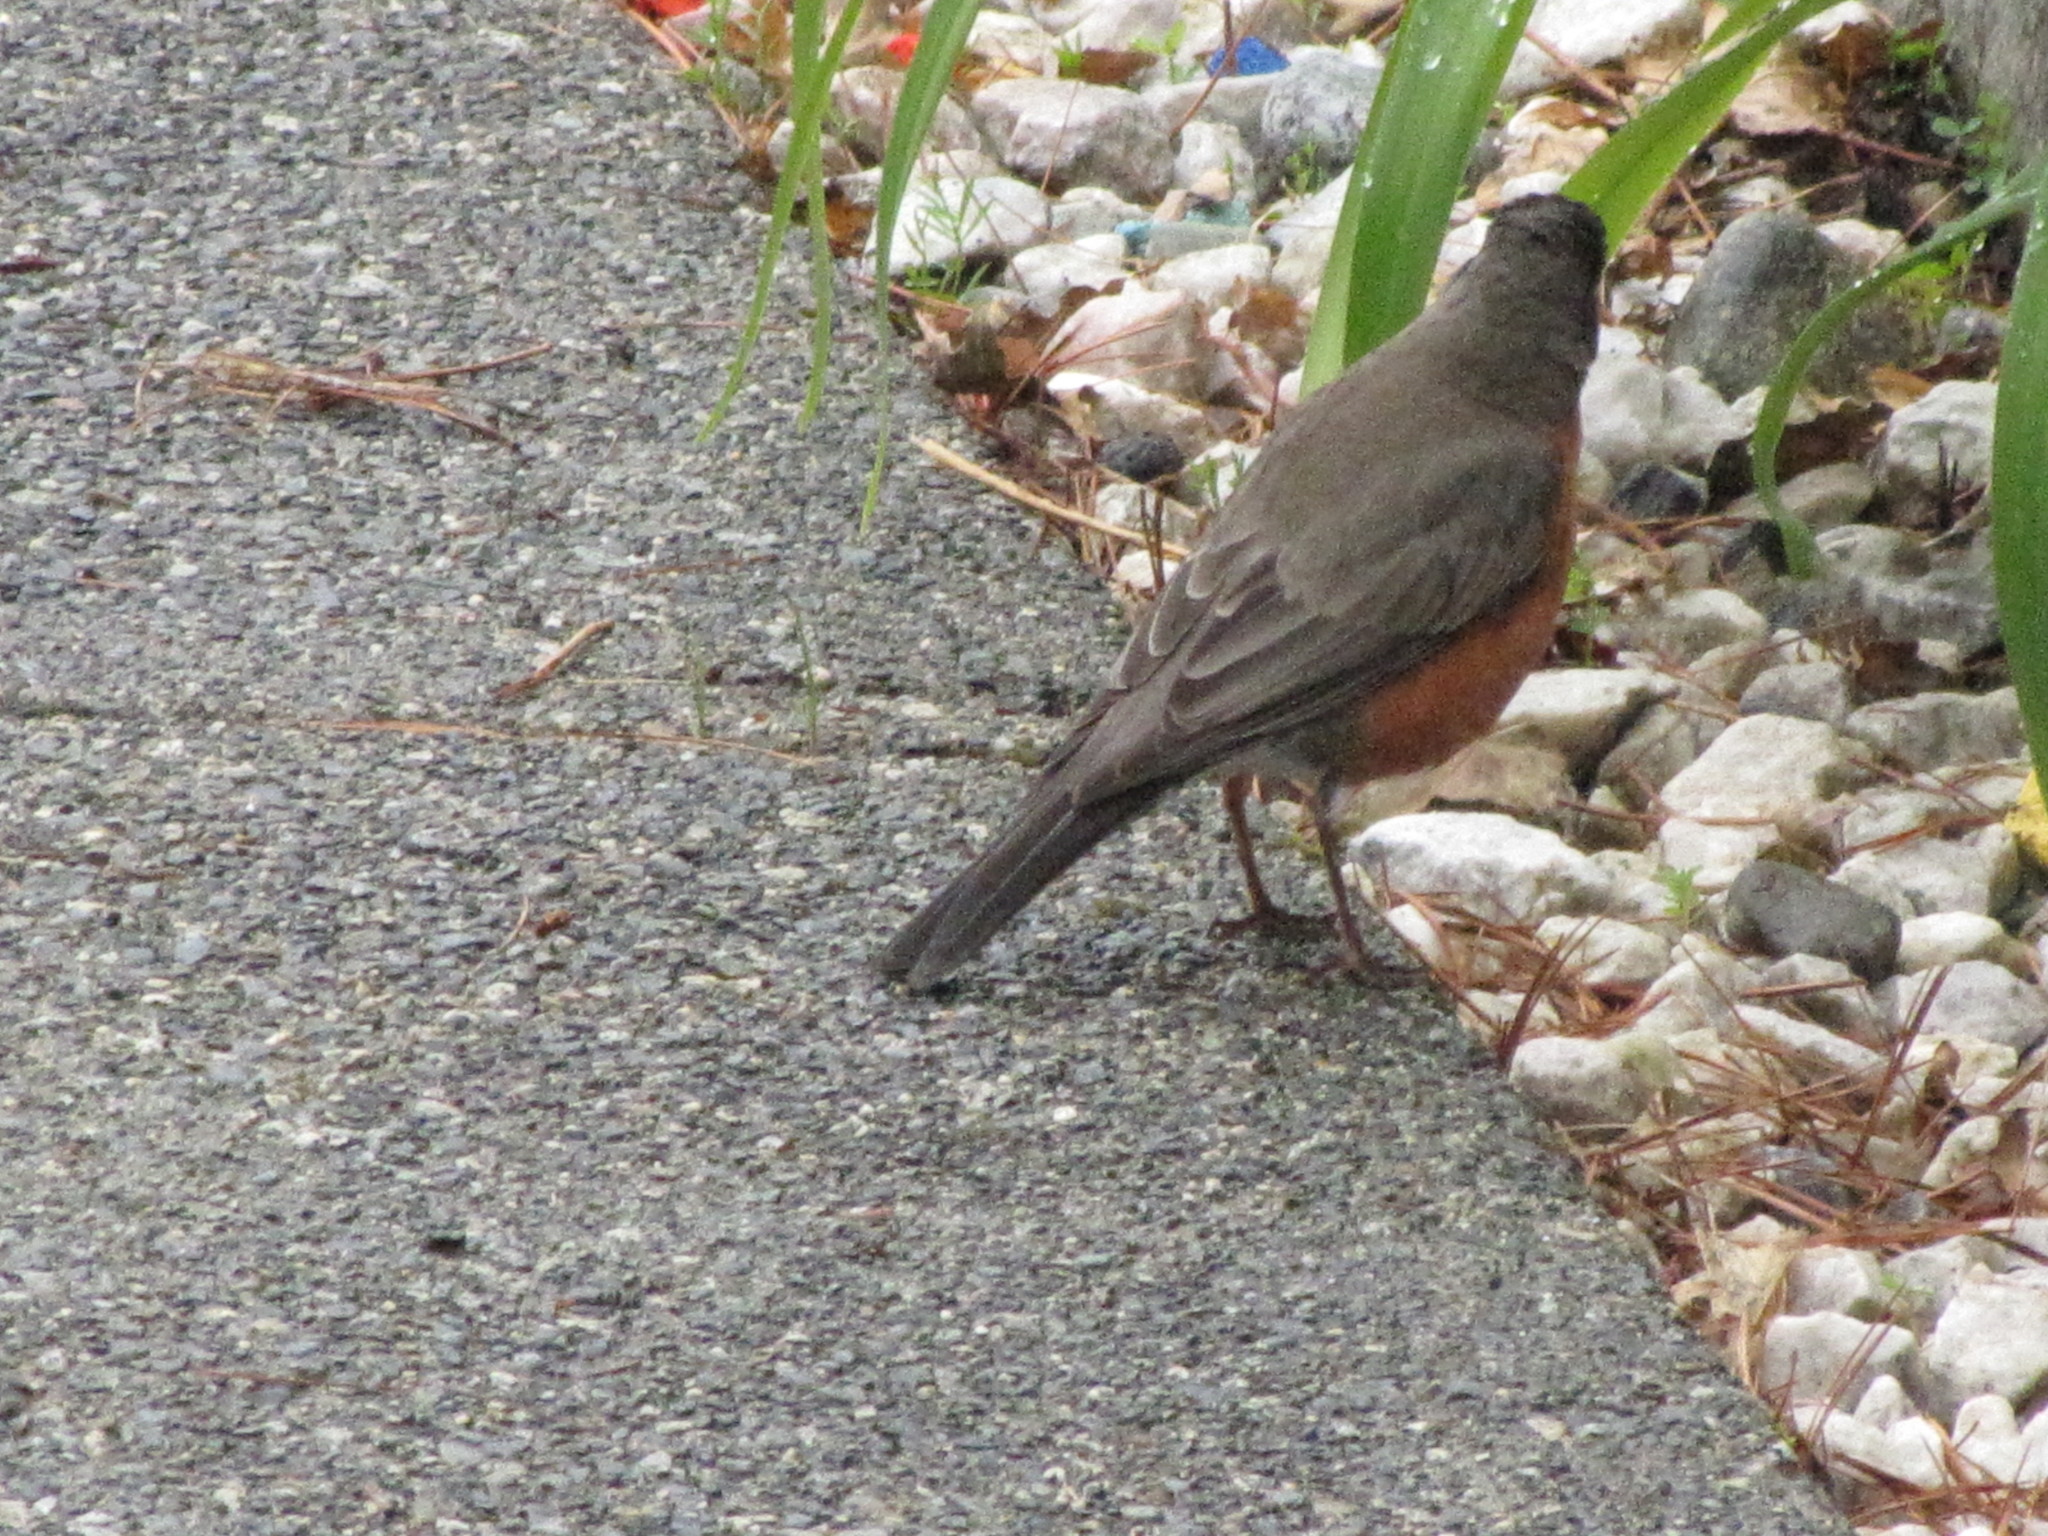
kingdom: Animalia
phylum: Chordata
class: Aves
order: Passeriformes
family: Turdidae
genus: Turdus
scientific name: Turdus migratorius
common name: American robin
